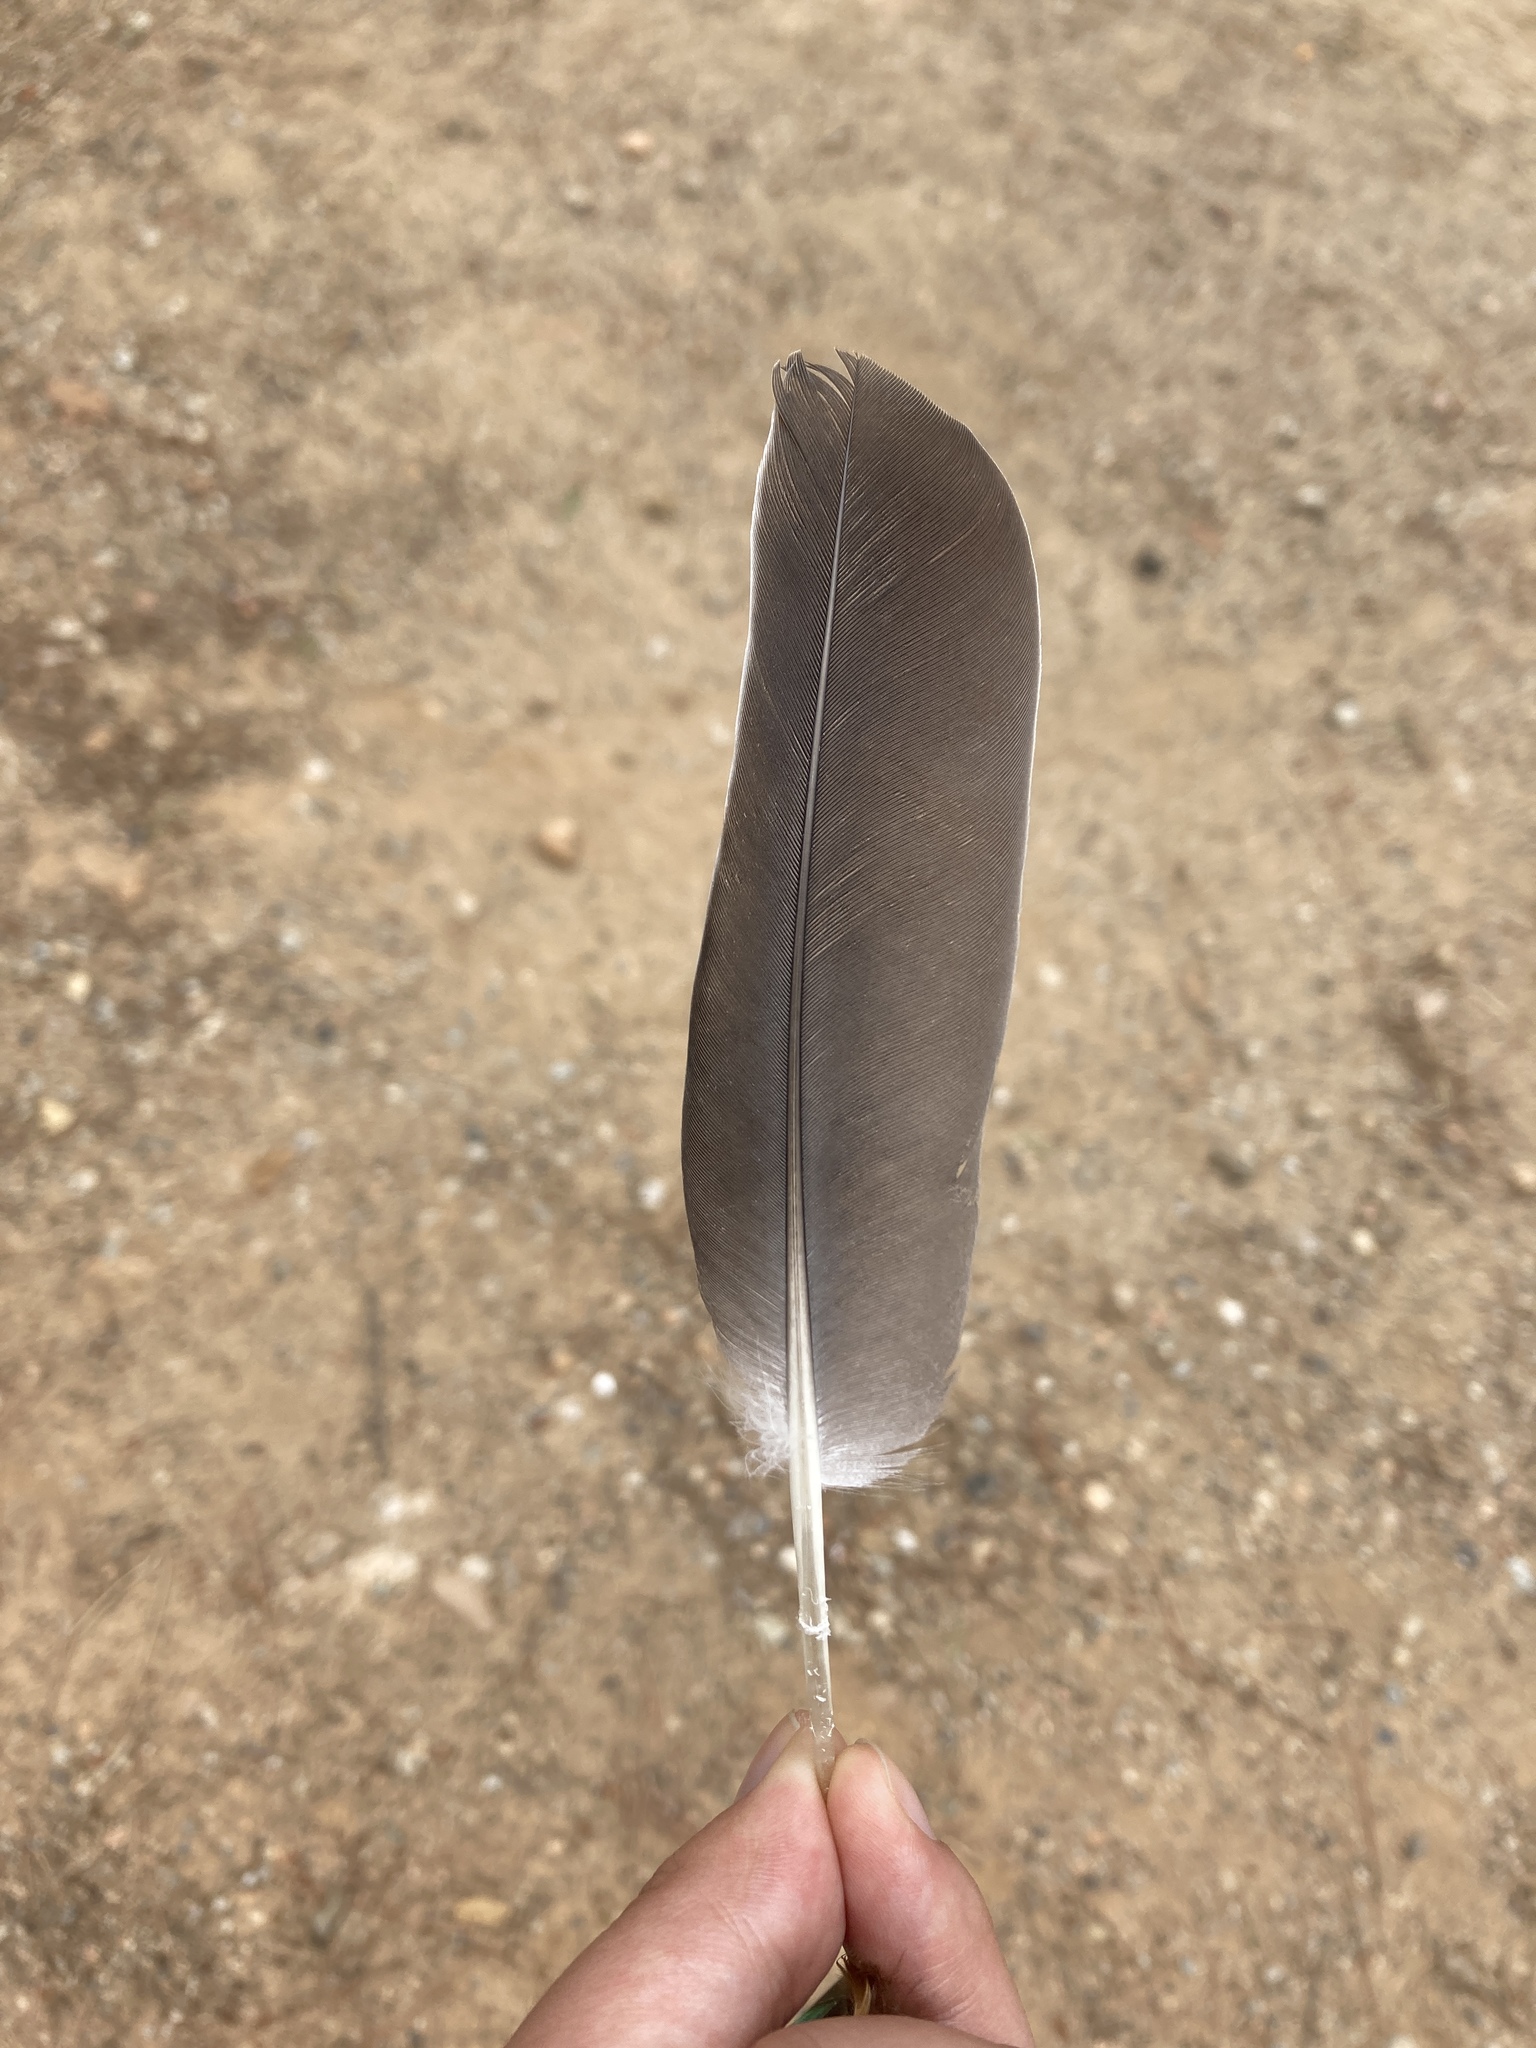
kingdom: Animalia
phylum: Chordata
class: Aves
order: Columbiformes
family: Columbidae
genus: Columba
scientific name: Columba palumbus
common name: Common wood pigeon
